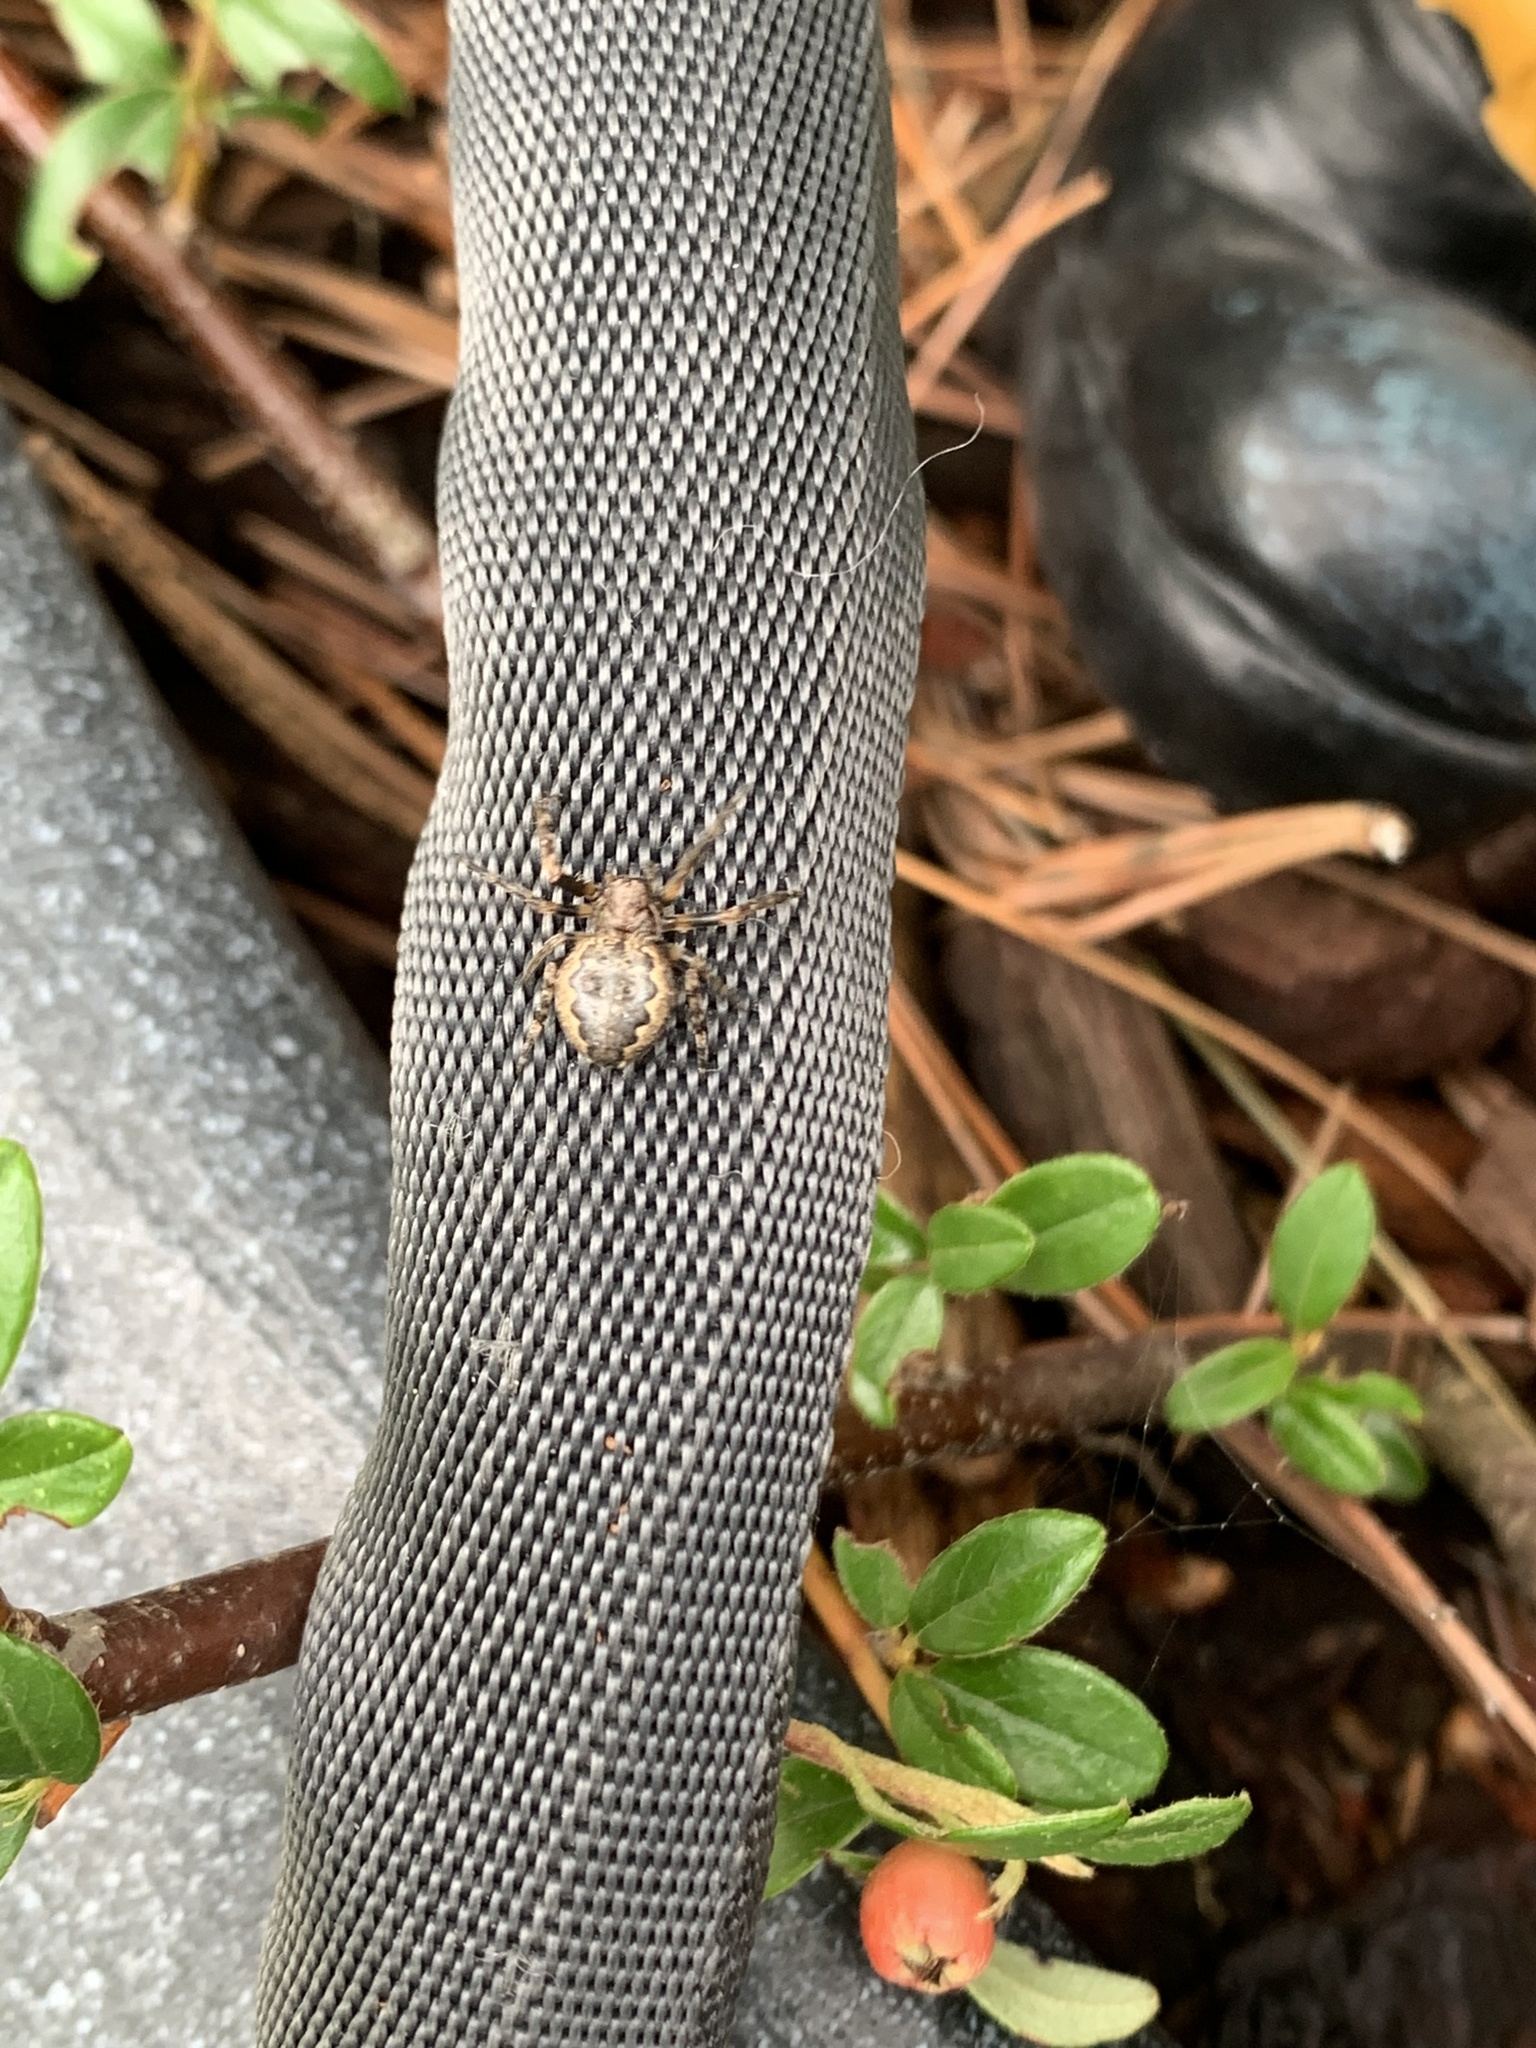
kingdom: Animalia
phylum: Arthropoda
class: Arachnida
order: Araneae
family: Araneidae
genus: Nuctenea
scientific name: Nuctenea umbratica
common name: Toad spider
